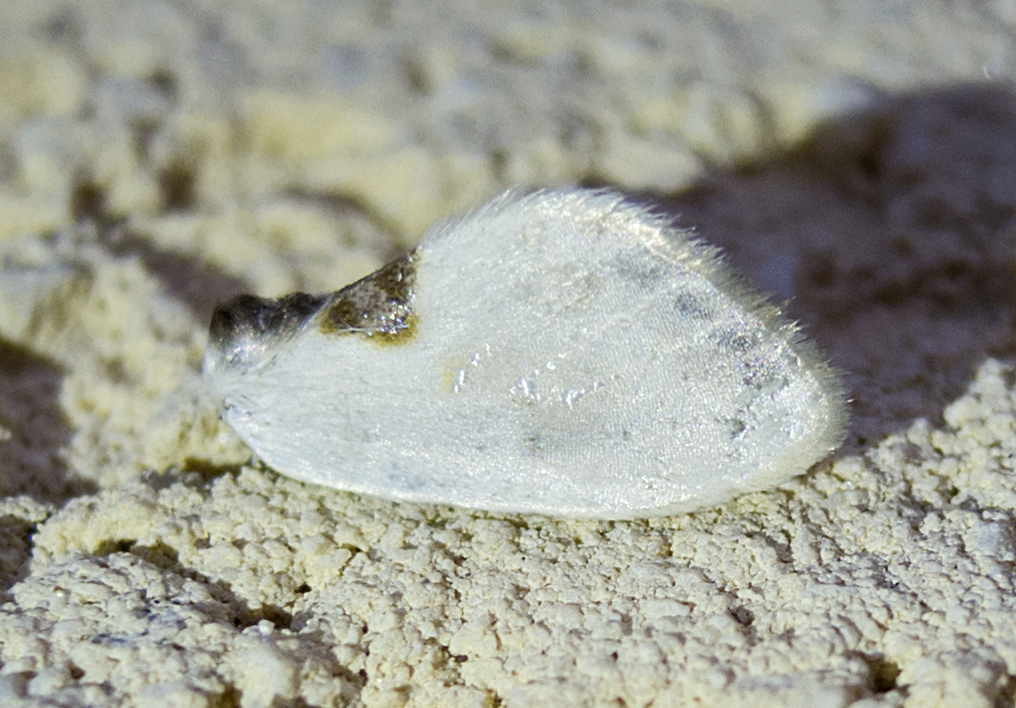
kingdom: Animalia
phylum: Arthropoda
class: Insecta
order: Lepidoptera
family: Drepanidae
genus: Cilix
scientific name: Cilix asiatica
